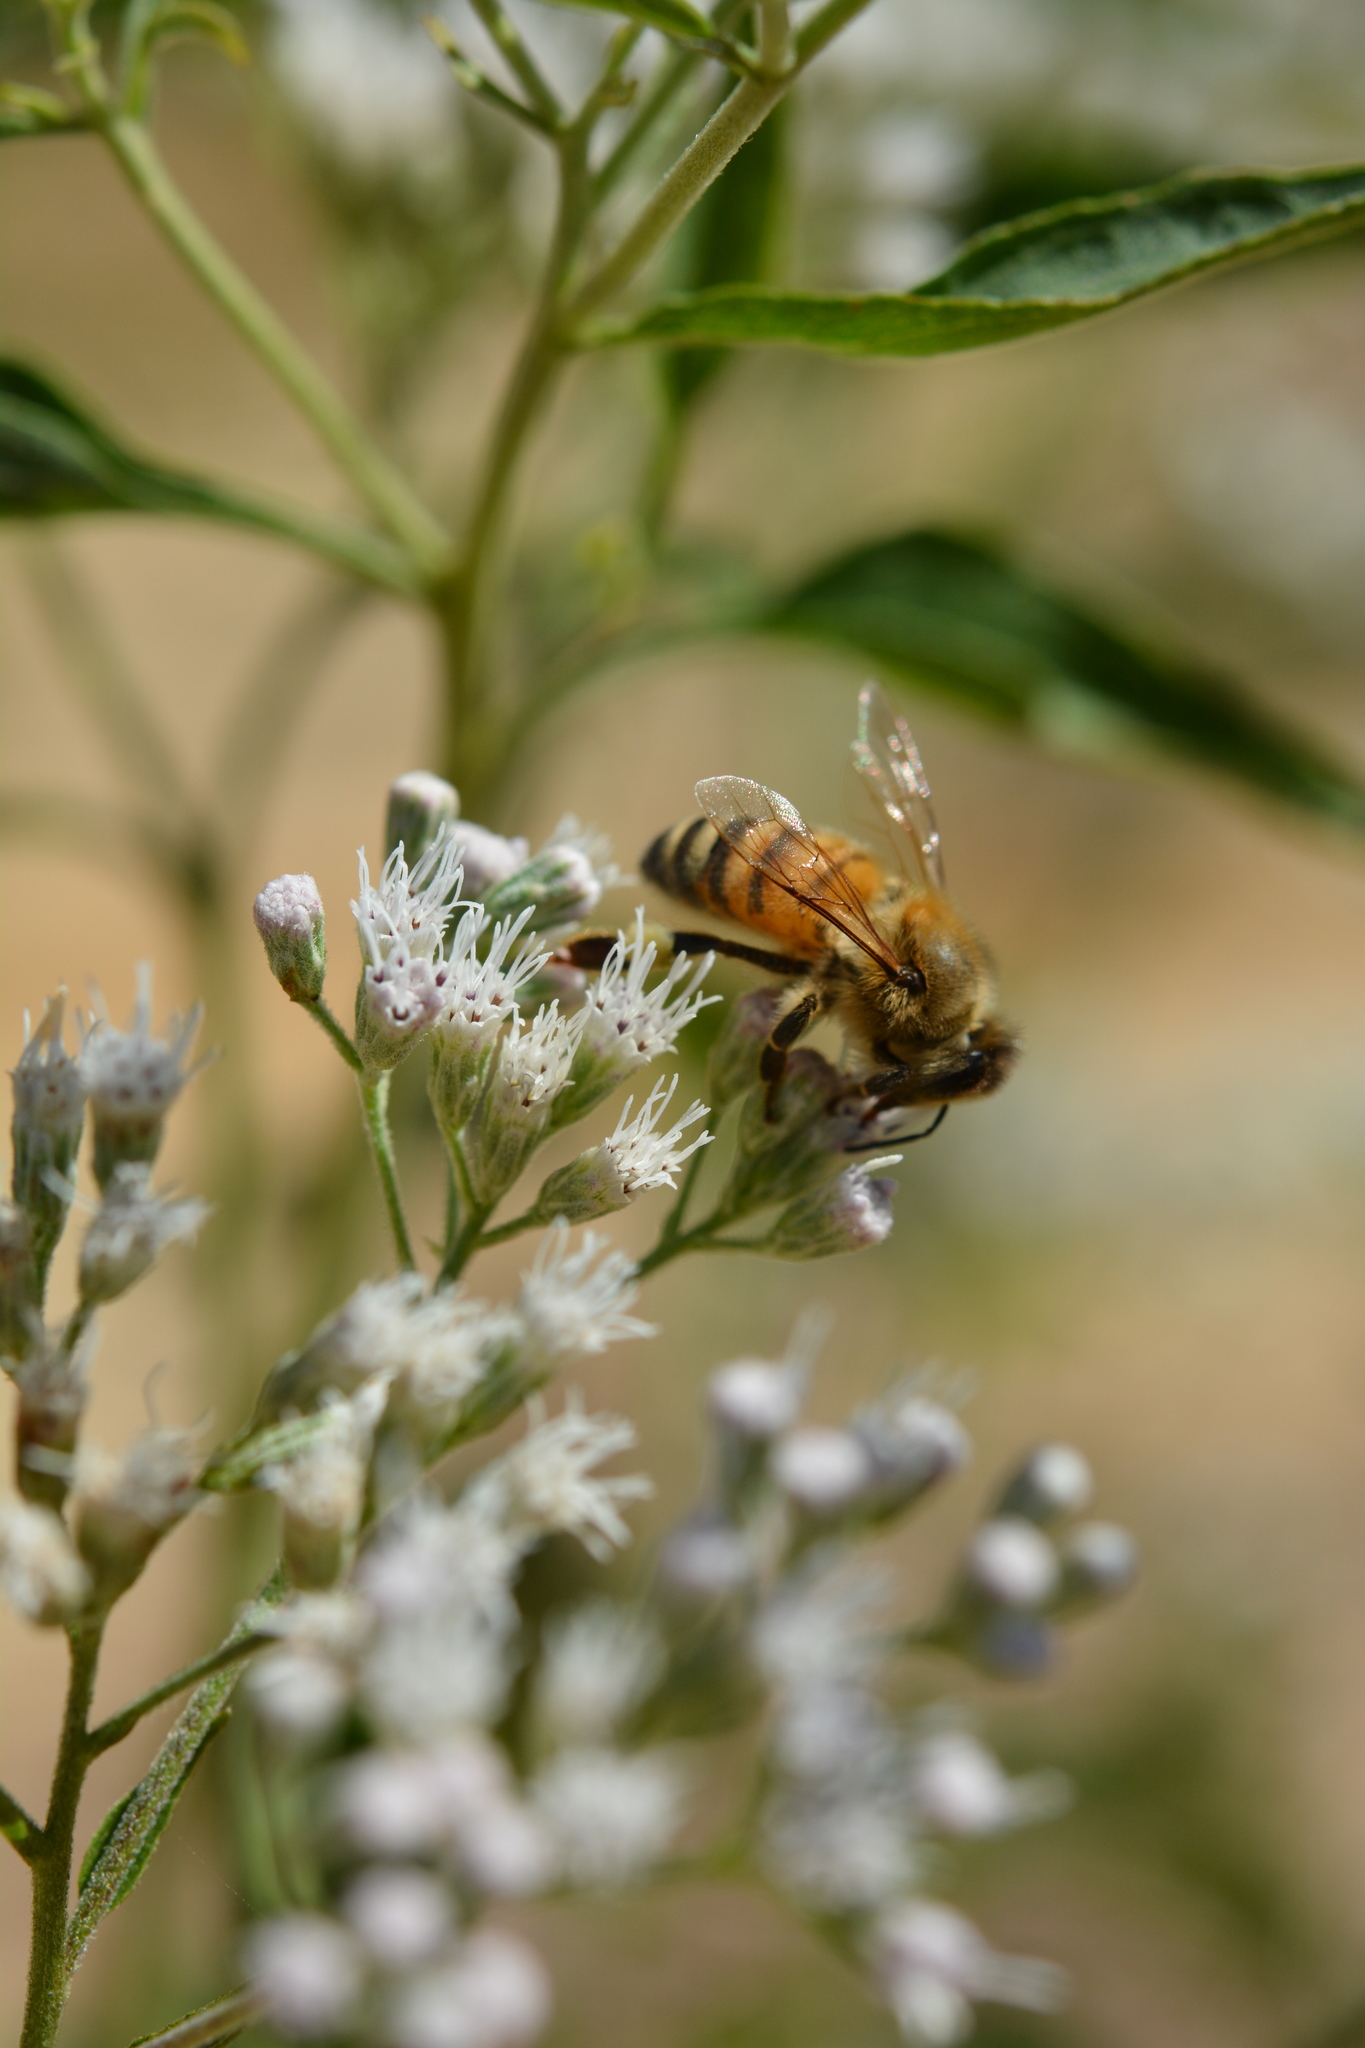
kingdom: Animalia
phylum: Arthropoda
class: Insecta
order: Hymenoptera
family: Apidae
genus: Apis
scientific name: Apis mellifera
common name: Honey bee
